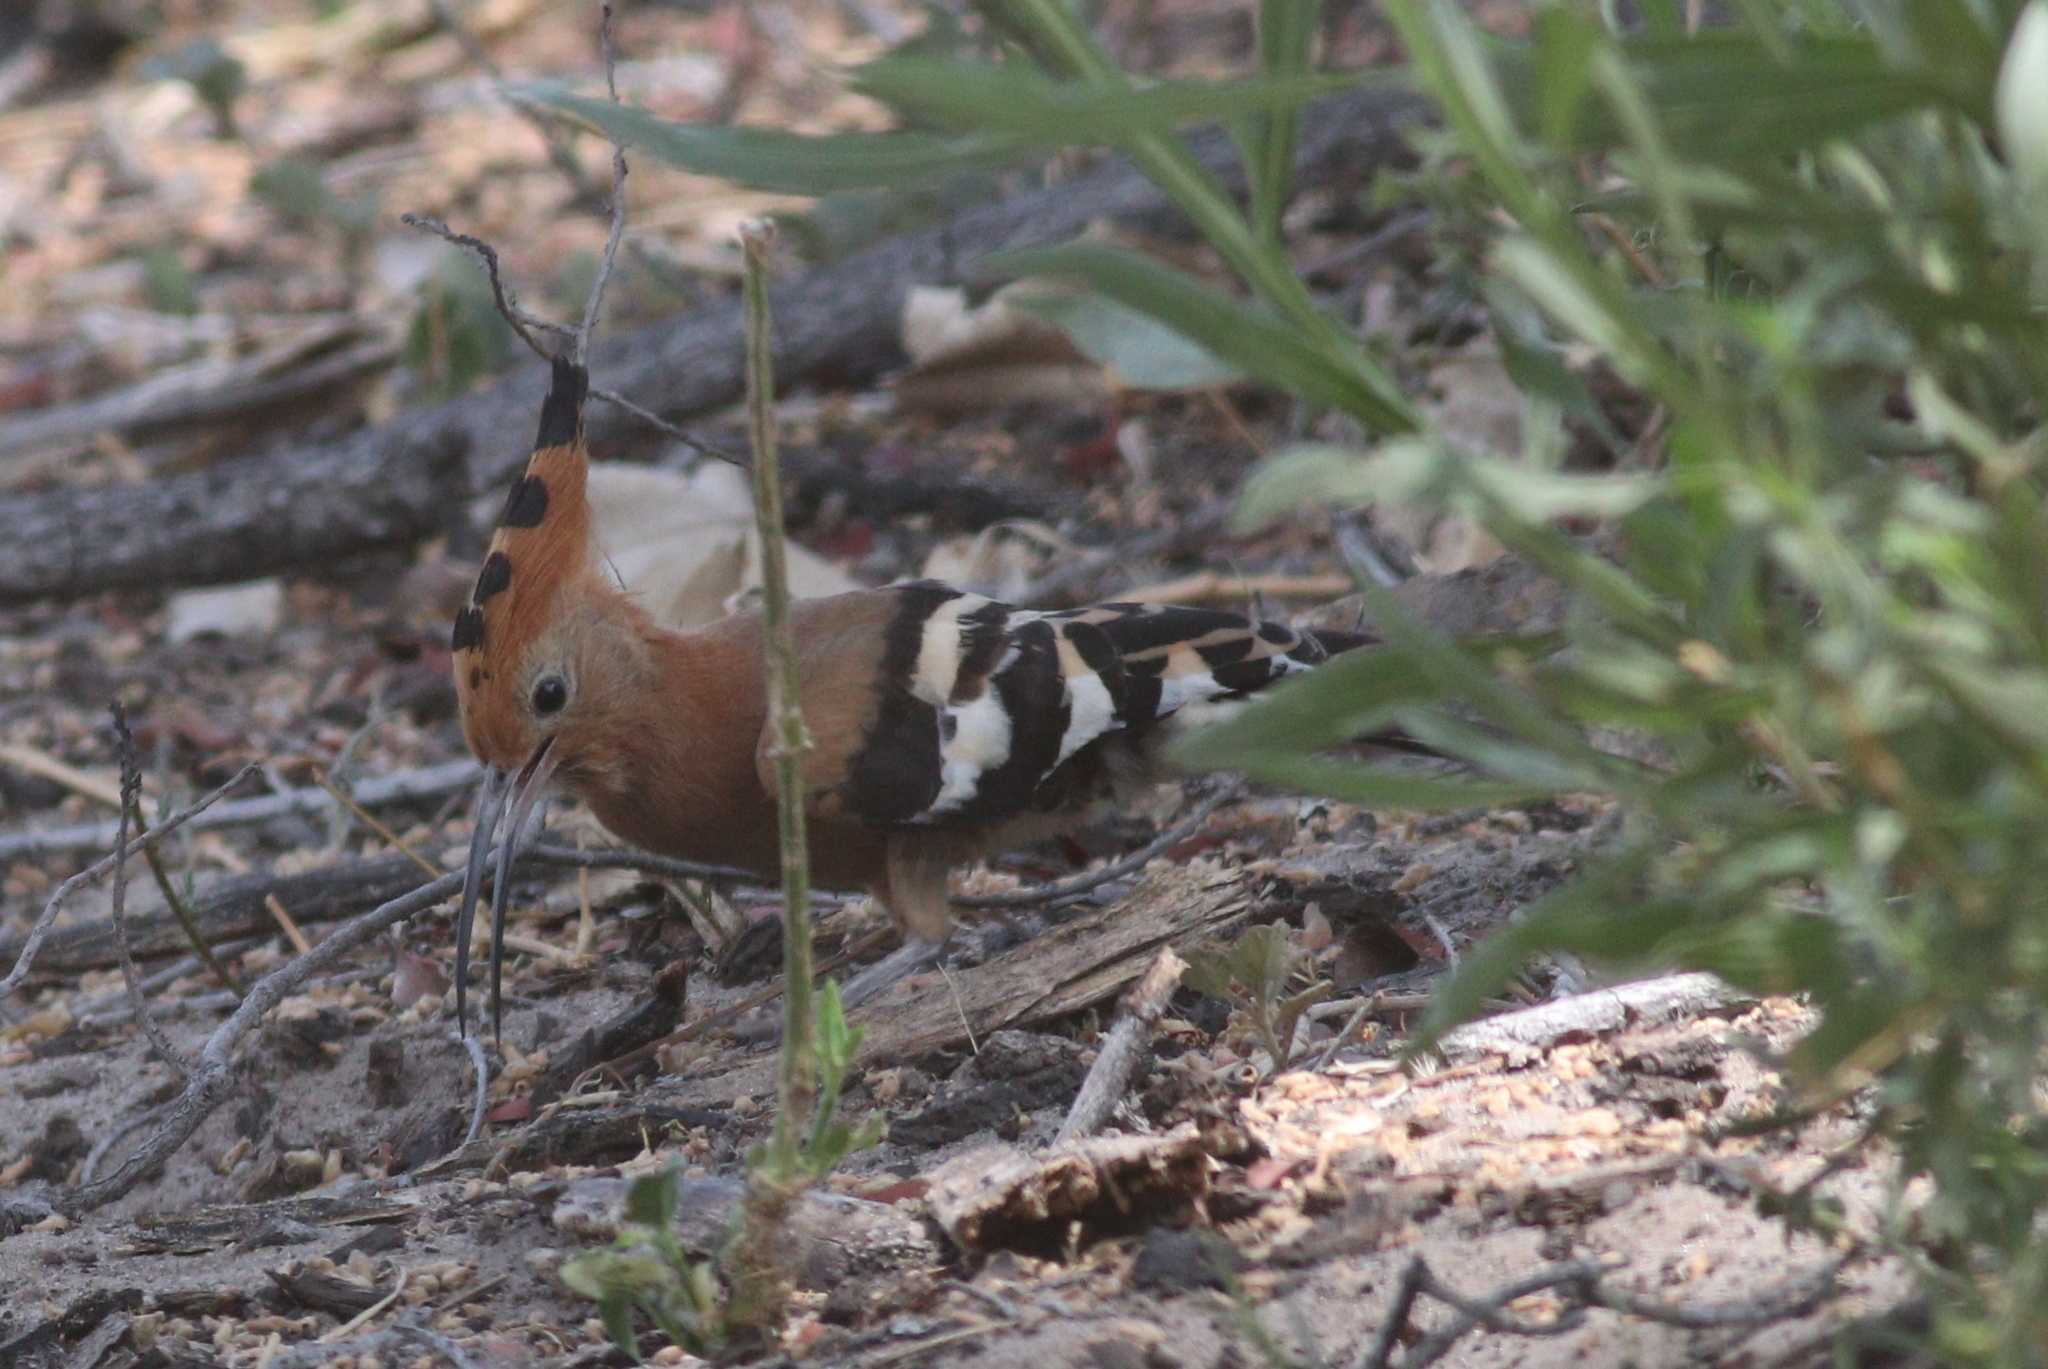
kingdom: Animalia
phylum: Chordata
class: Aves
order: Bucerotiformes
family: Upupidae
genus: Upupa
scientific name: Upupa africana
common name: African hoopoe
